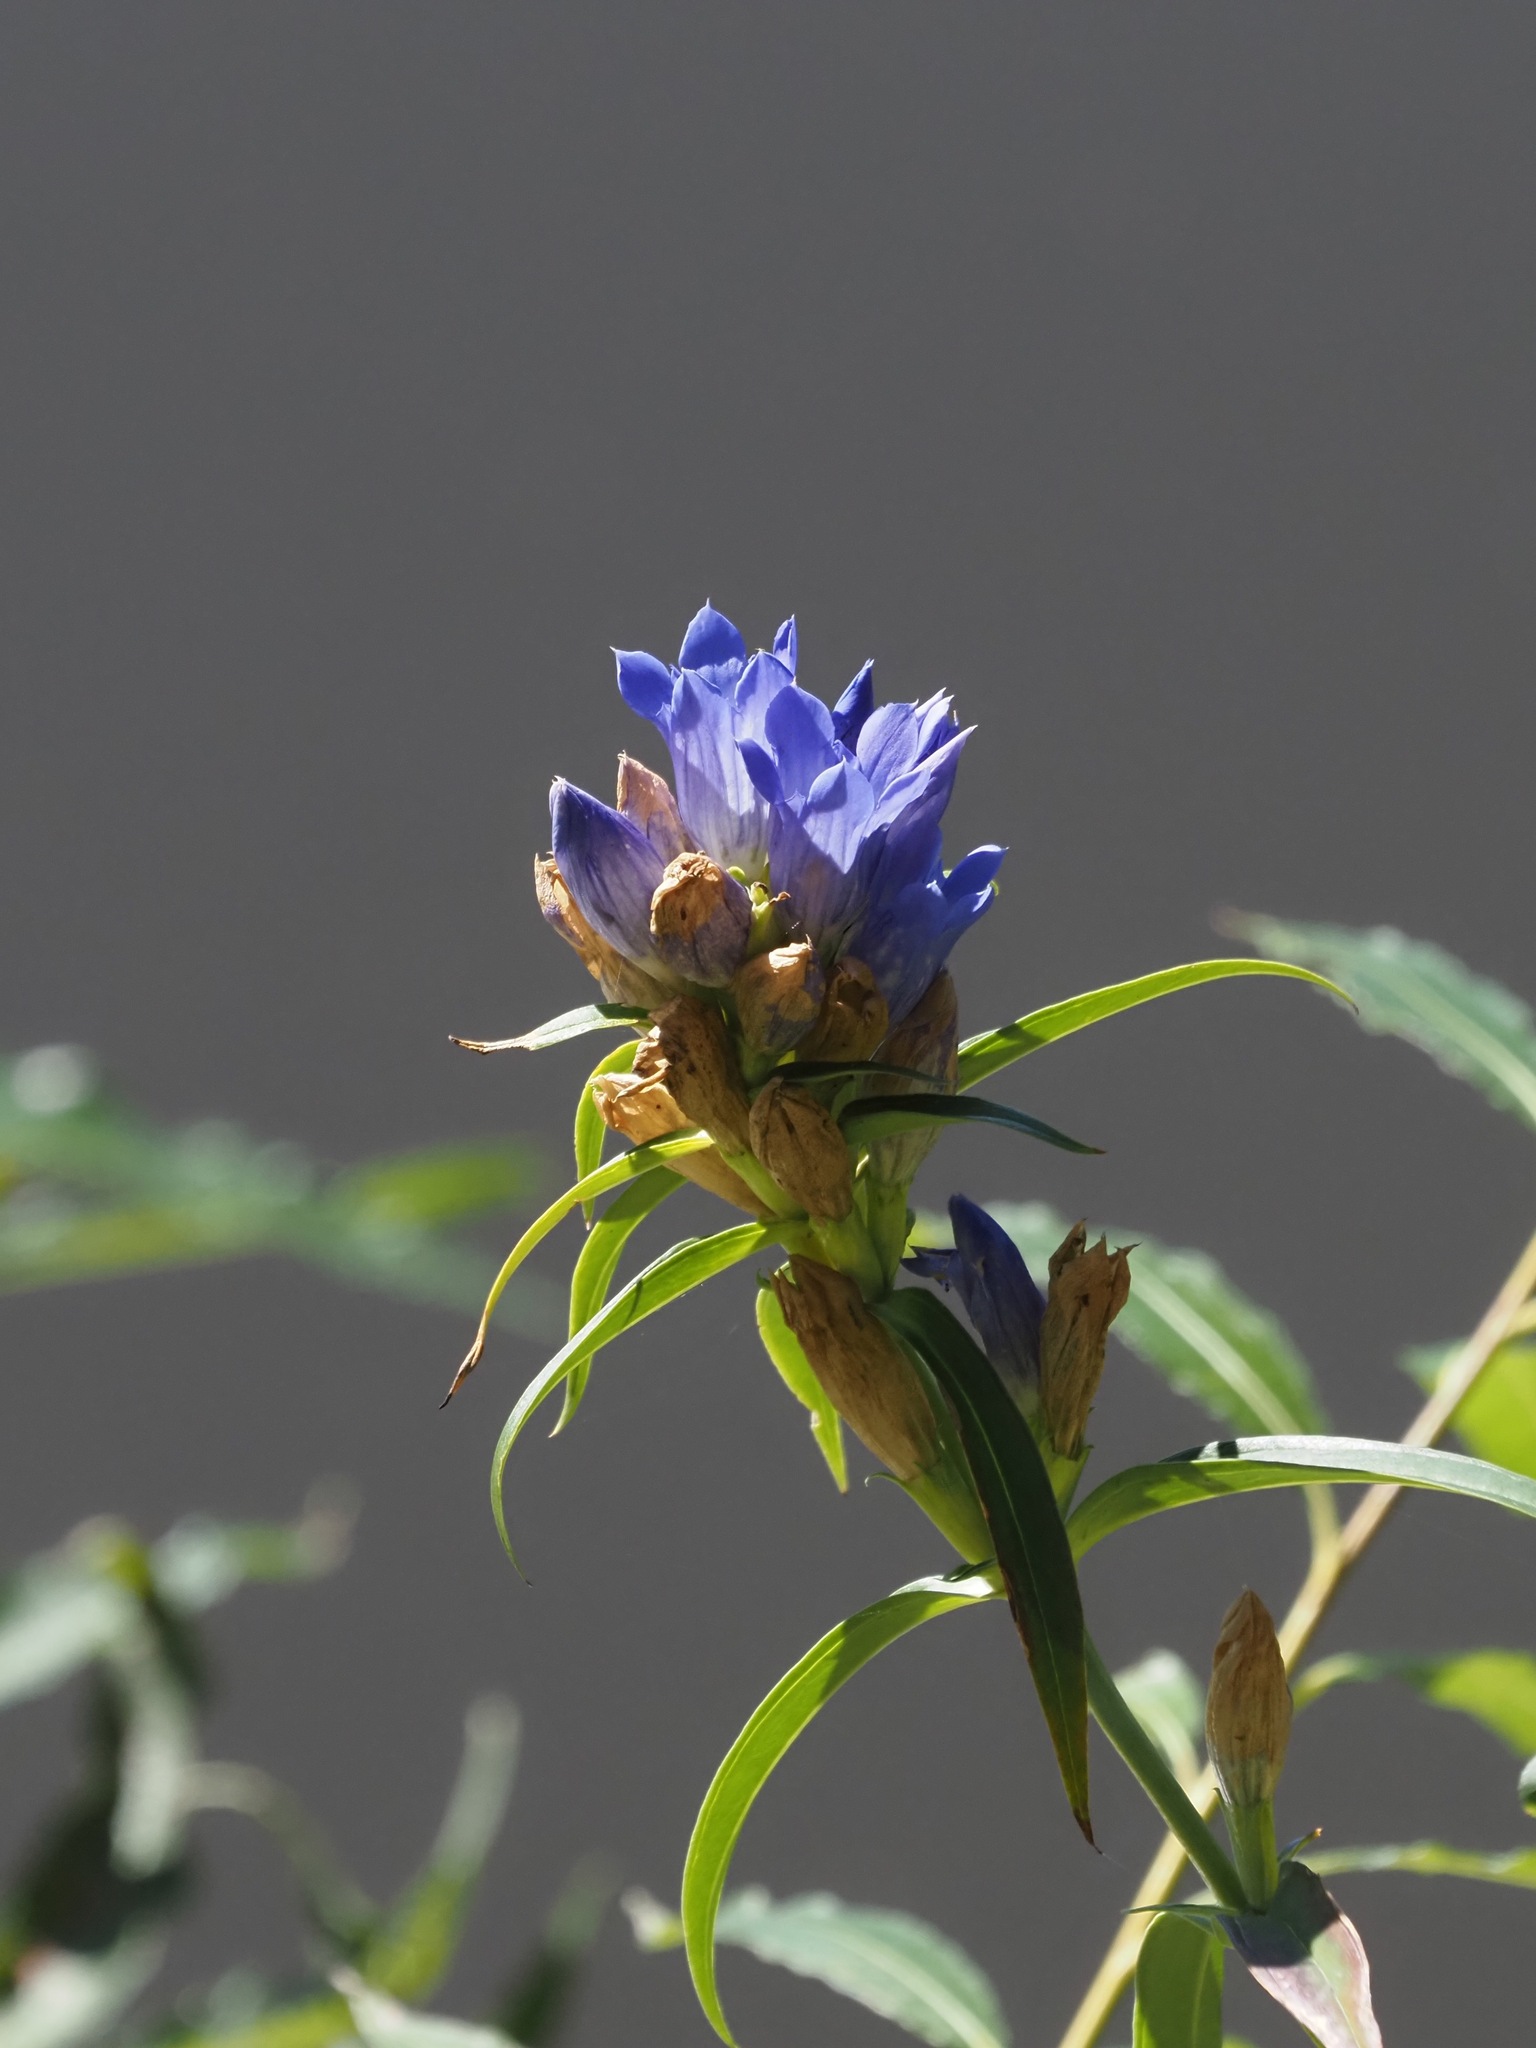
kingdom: Plantae
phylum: Tracheophyta
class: Magnoliopsida
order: Gentianales
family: Gentianaceae
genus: Gentiana
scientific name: Gentiana triflora
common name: Three-flower gentian
